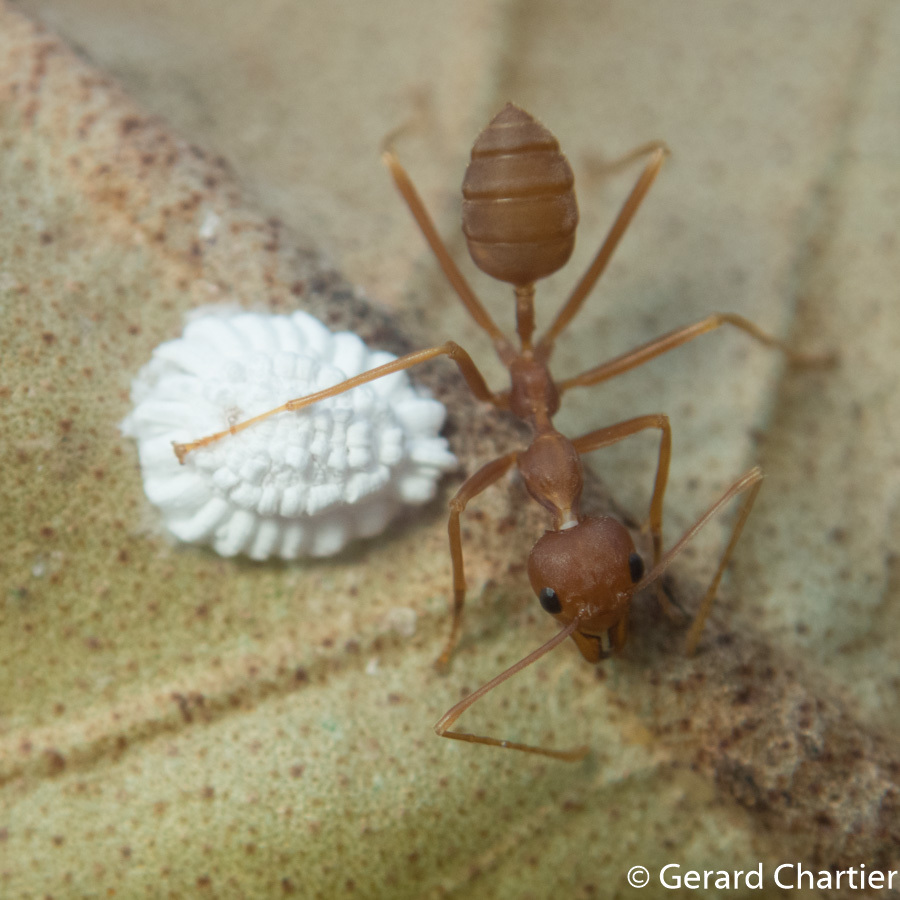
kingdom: Animalia
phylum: Arthropoda
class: Insecta
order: Hymenoptera
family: Formicidae
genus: Oecophylla
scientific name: Oecophylla smaragdina
